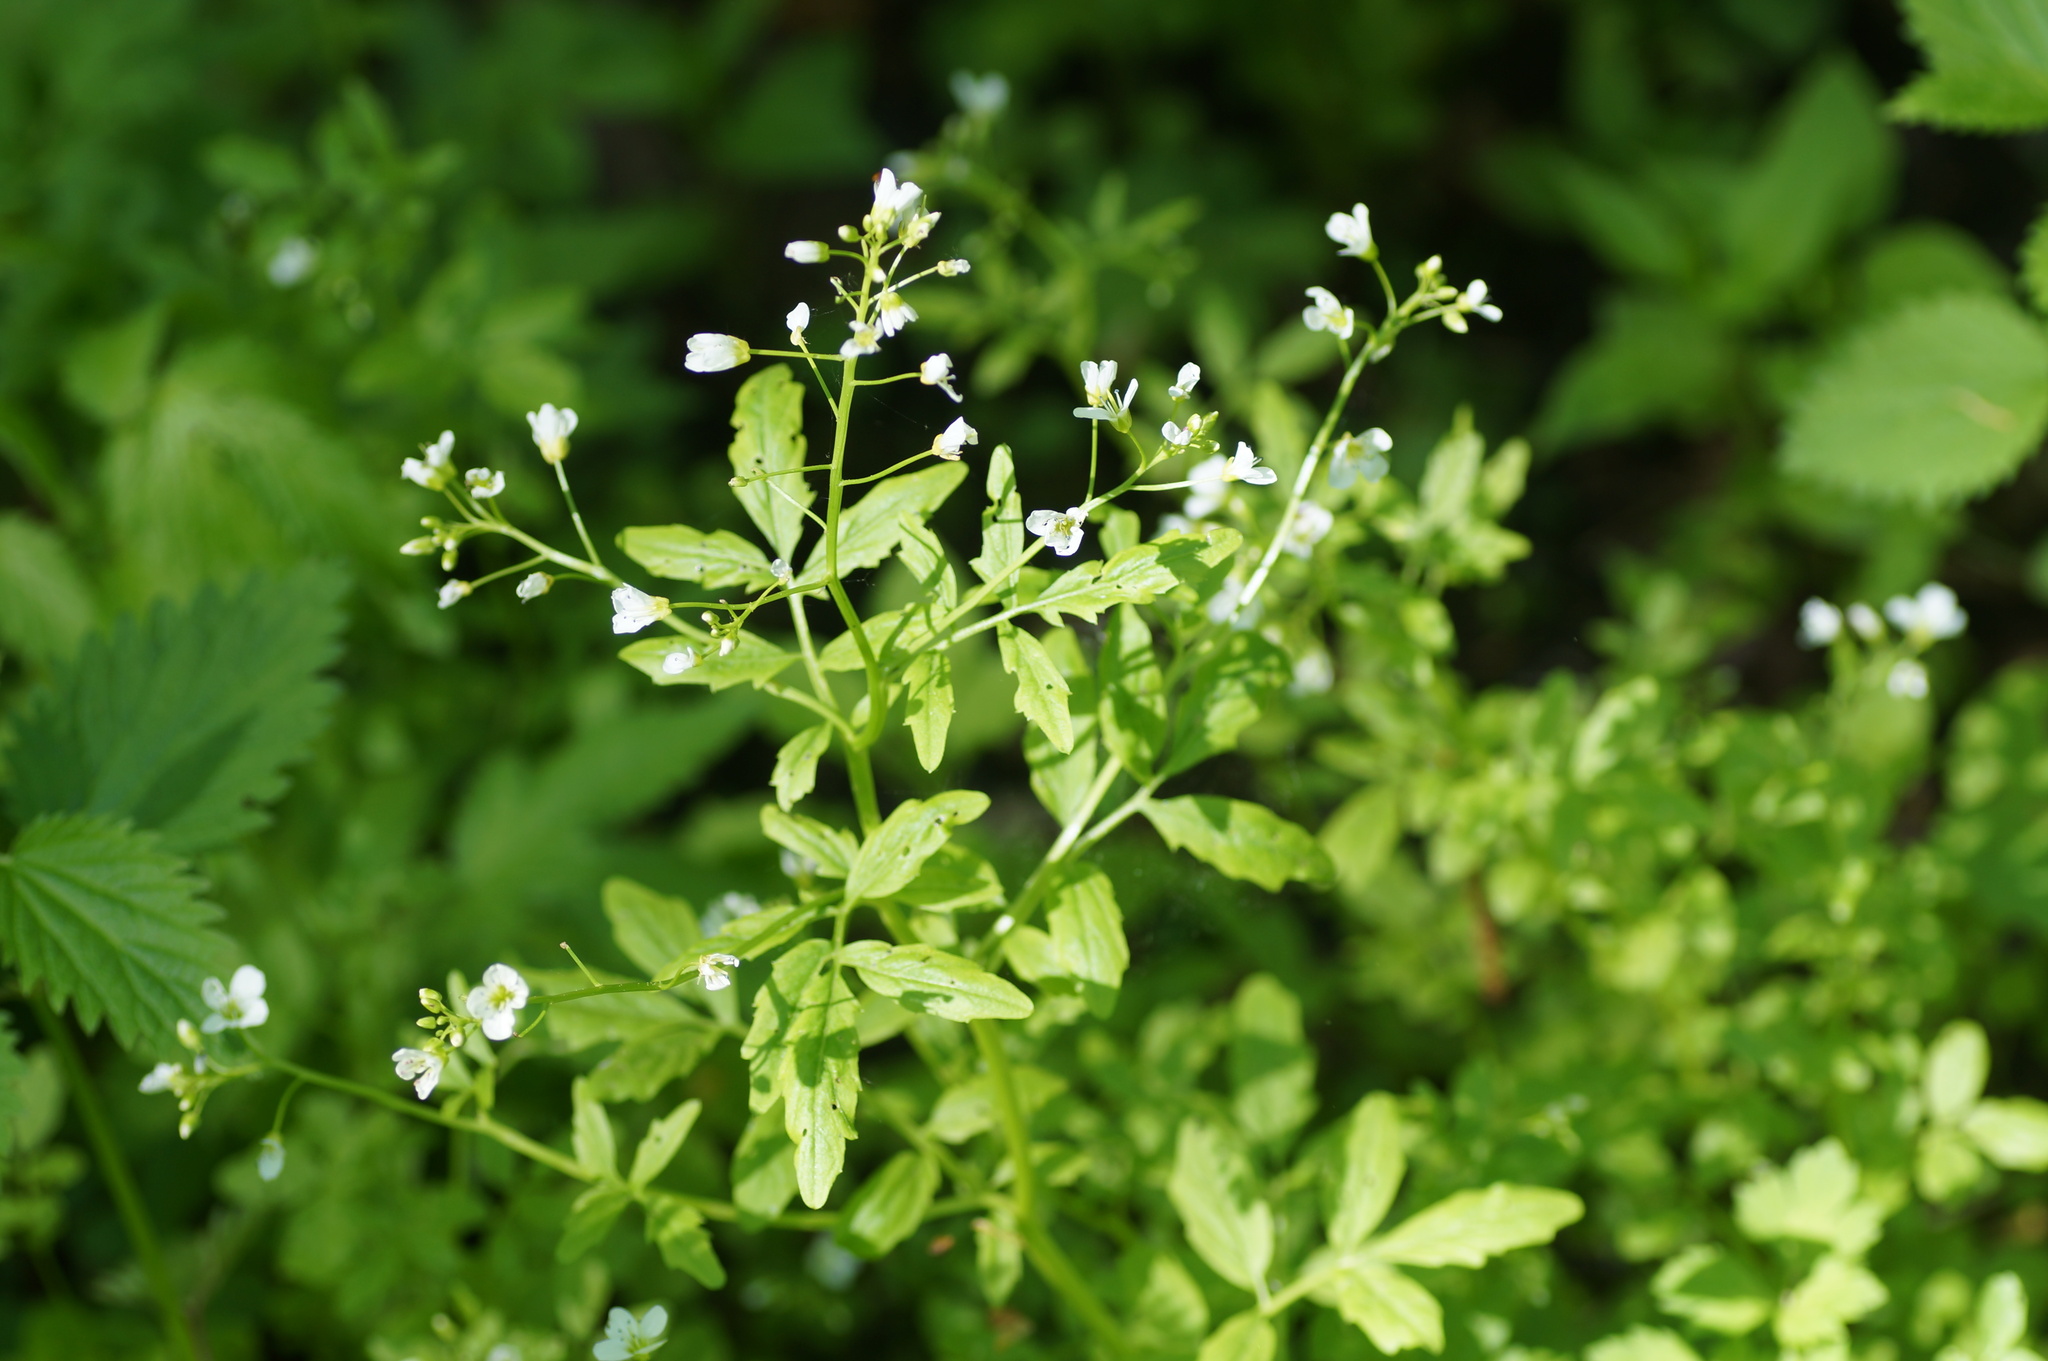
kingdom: Plantae
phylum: Tracheophyta
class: Magnoliopsida
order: Brassicales
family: Brassicaceae
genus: Cardamine
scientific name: Cardamine amara
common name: Large bitter-cress
